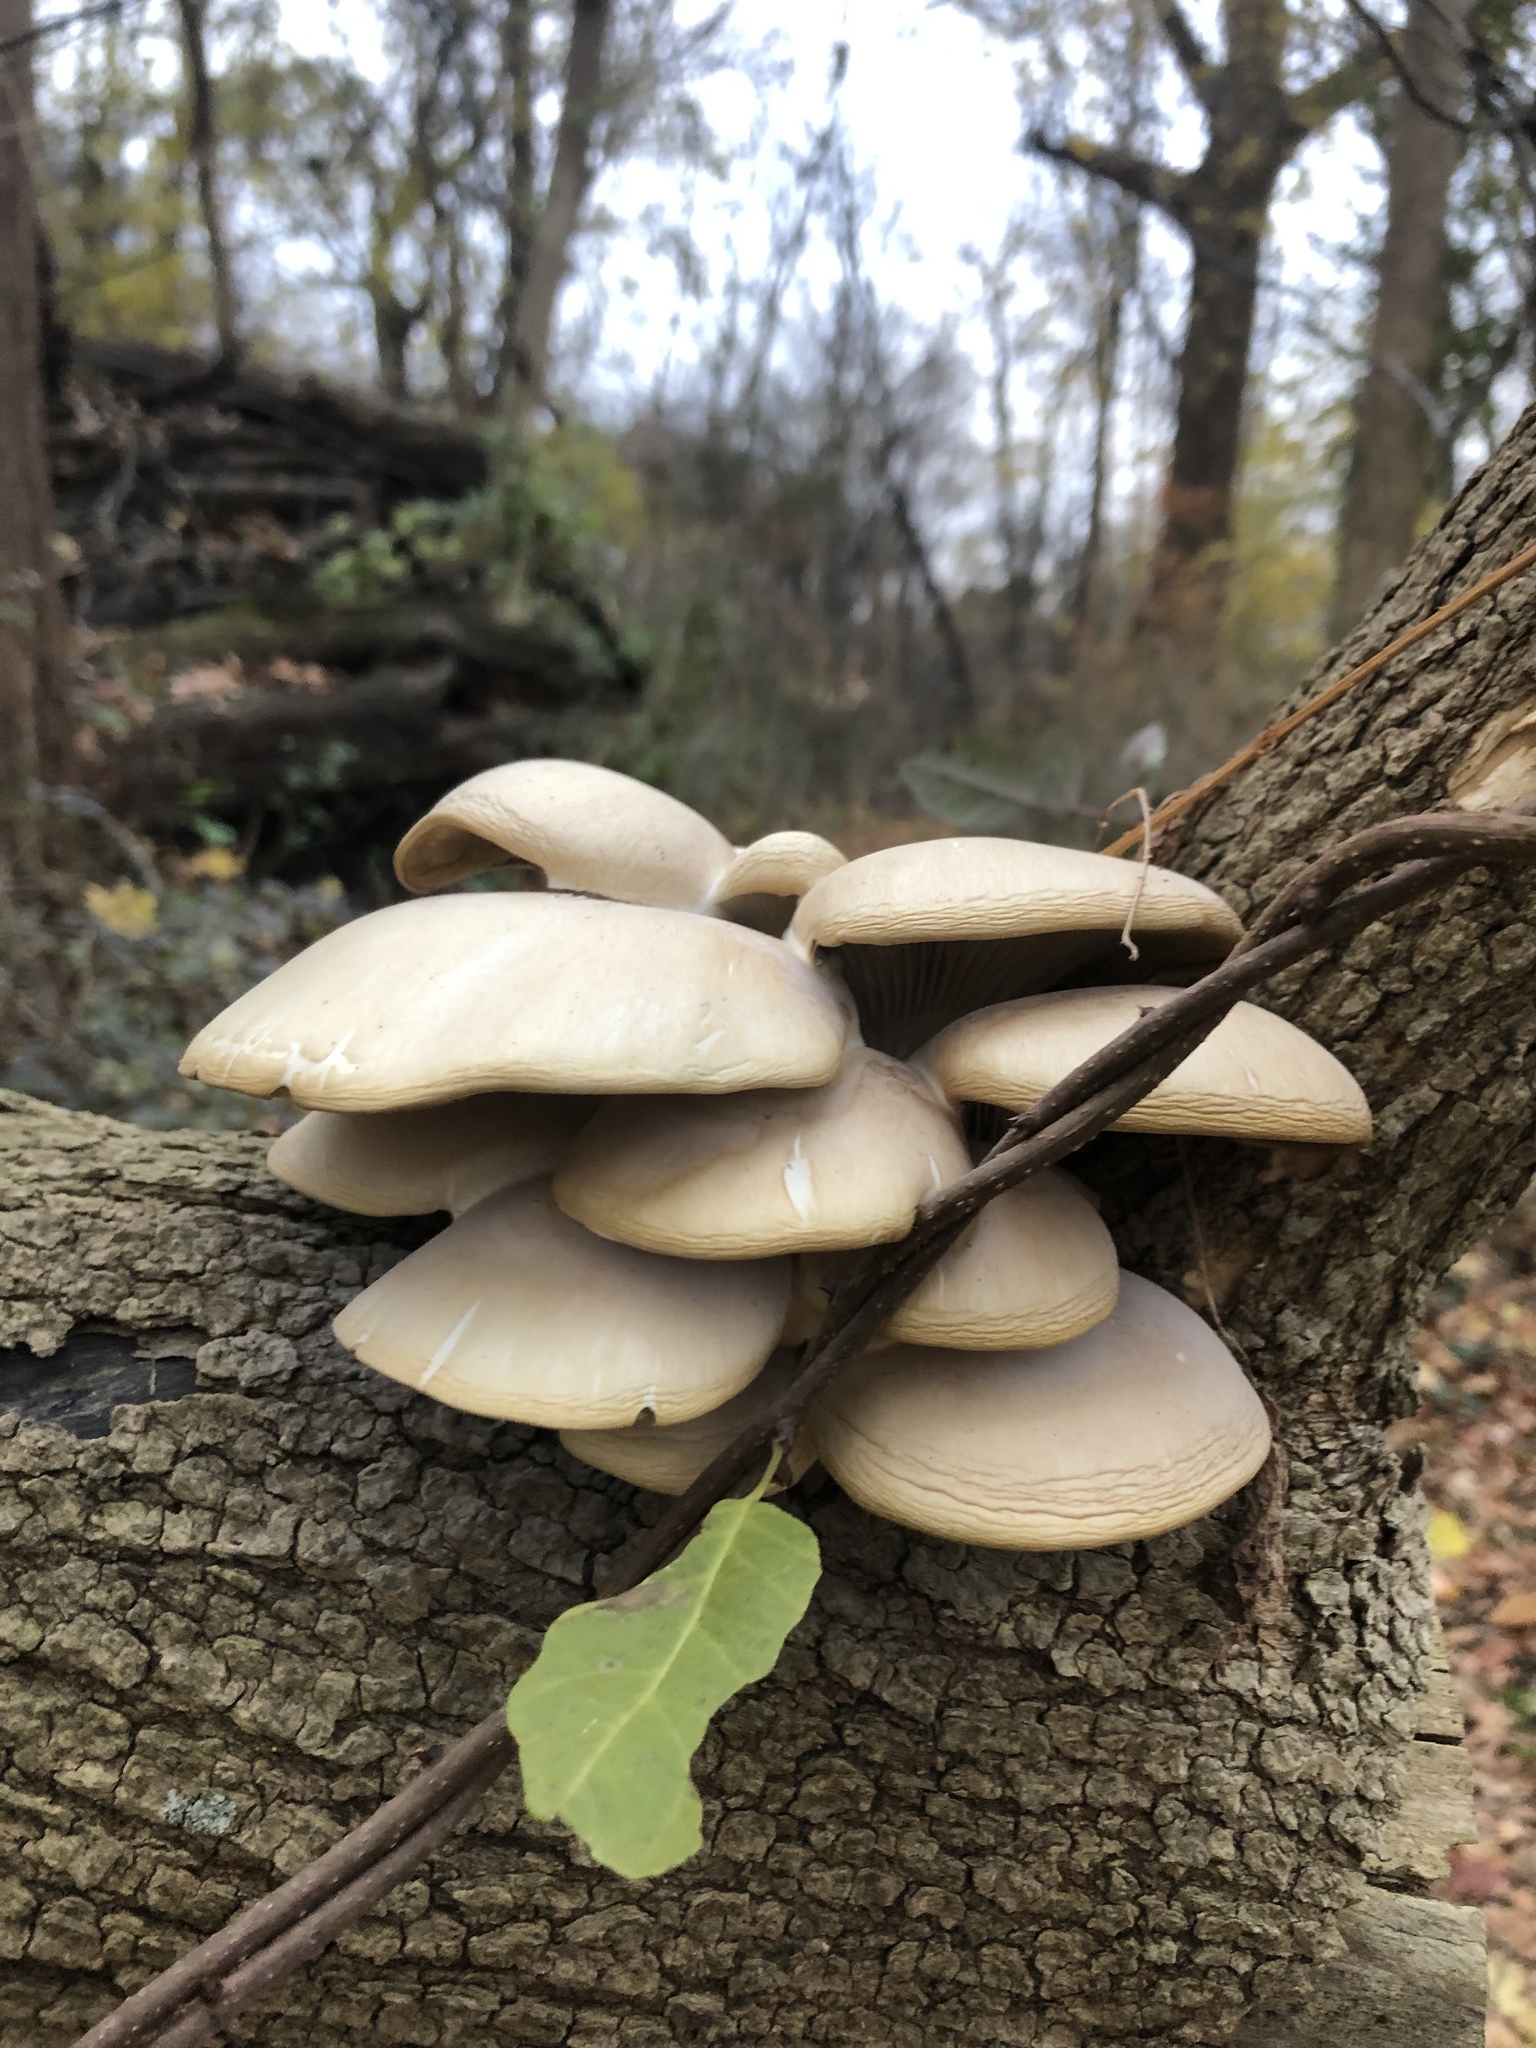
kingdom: Fungi
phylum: Basidiomycota
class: Agaricomycetes
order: Agaricales
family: Pleurotaceae
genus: Pleurotus
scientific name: Pleurotus ostreatus
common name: Oyster mushroom
